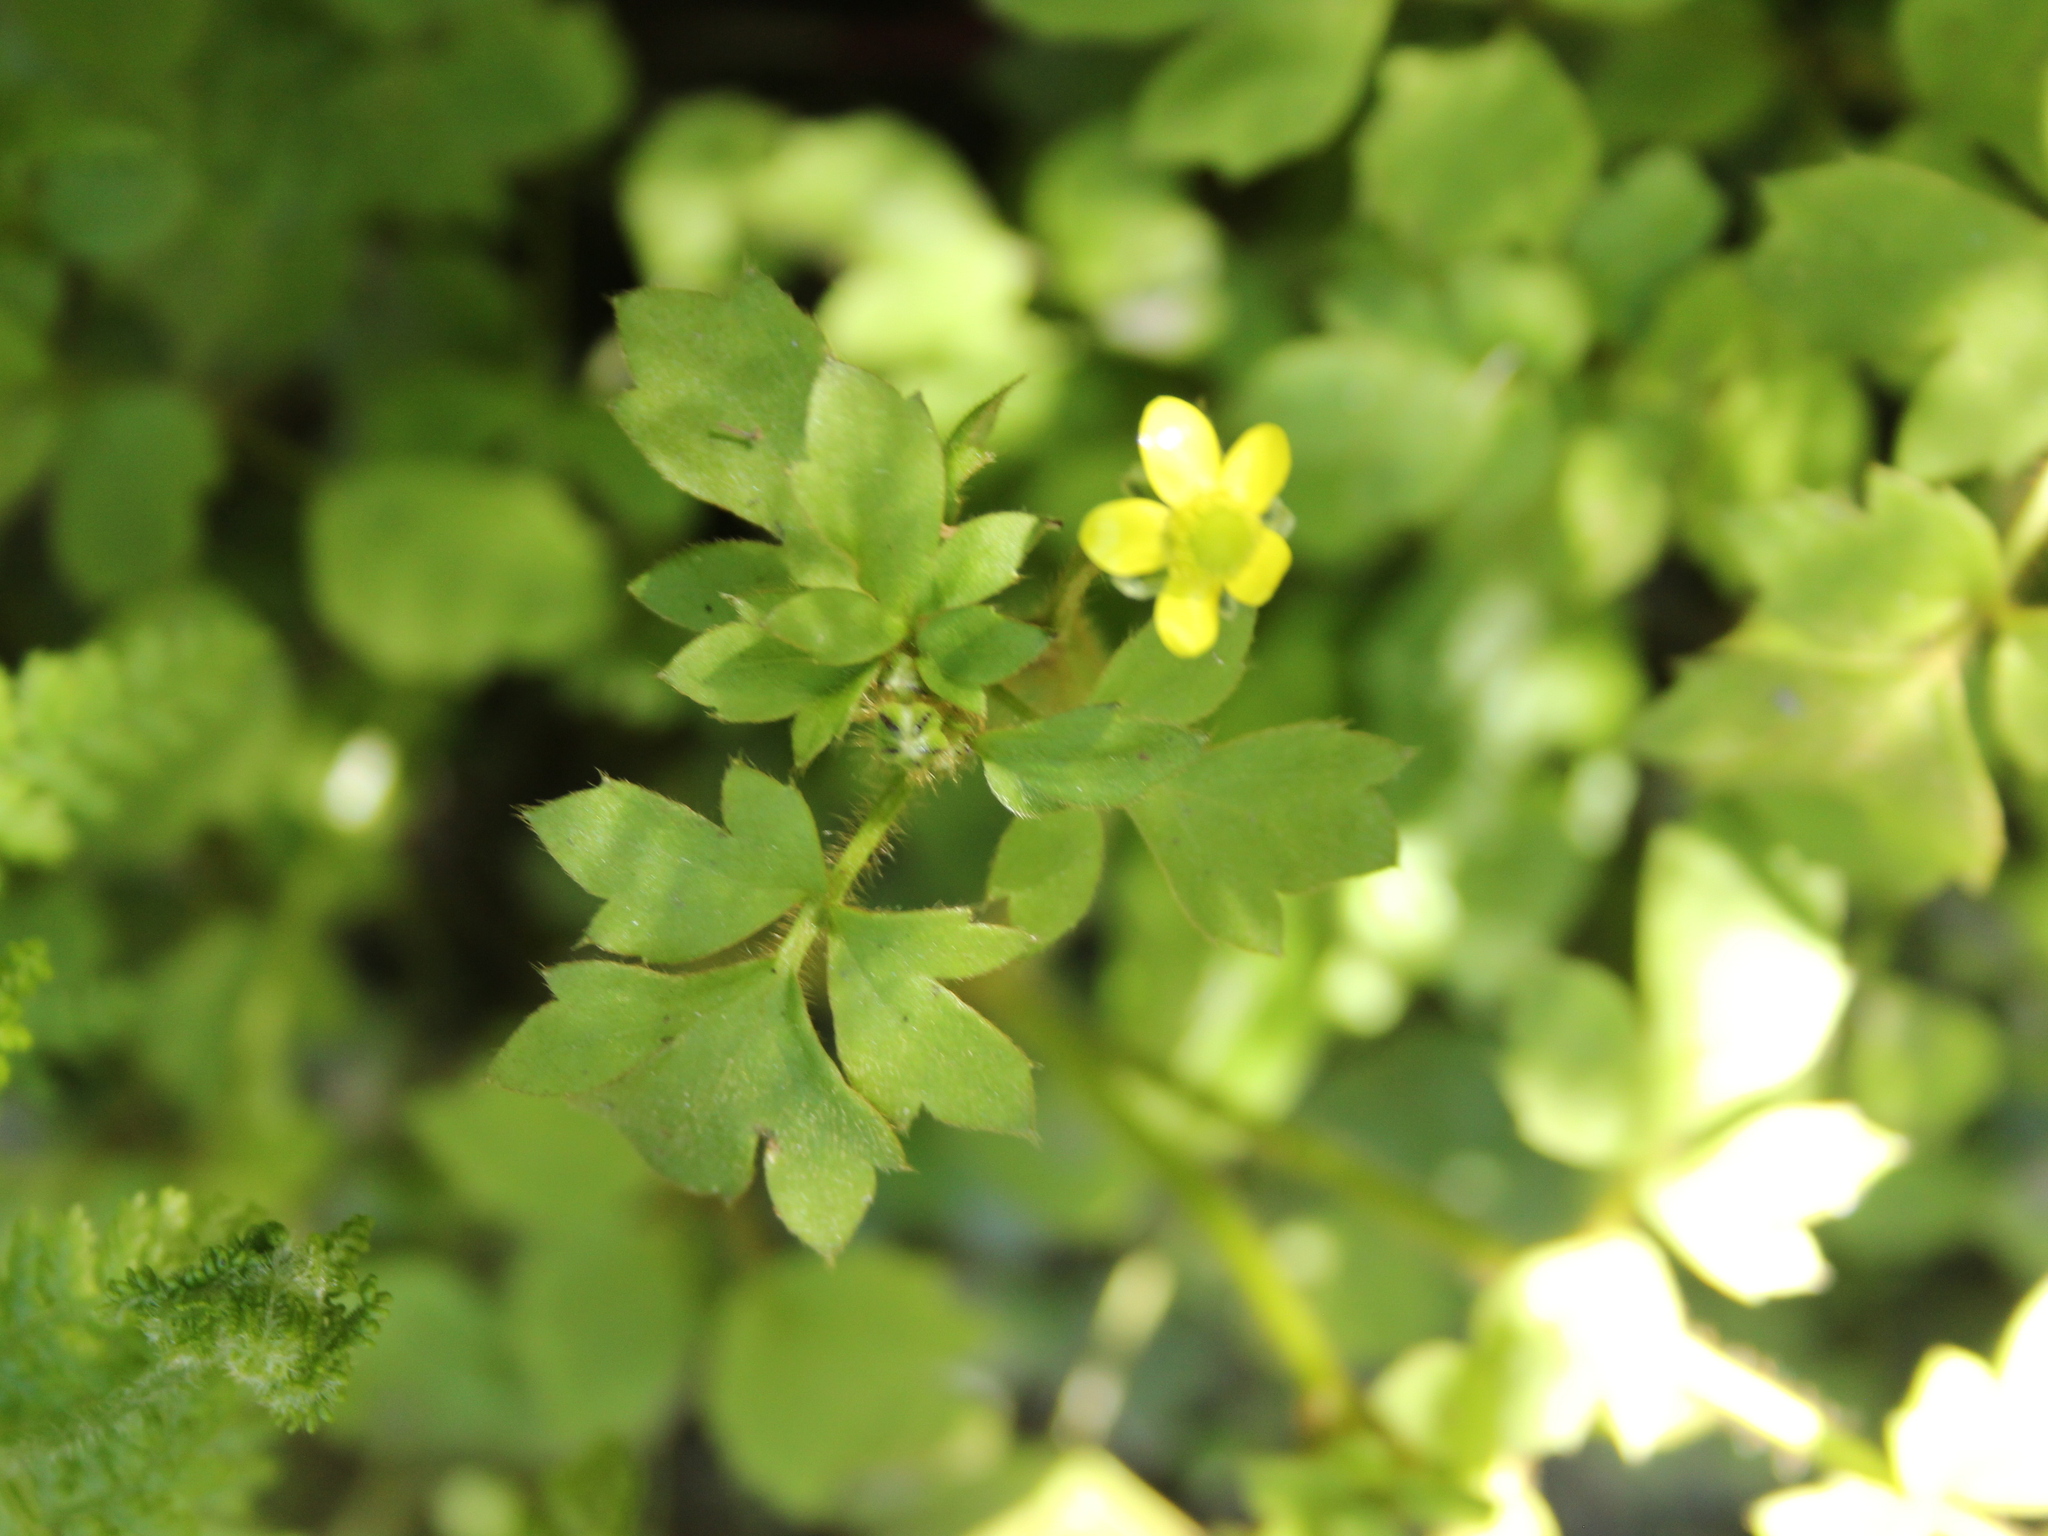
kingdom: Plantae
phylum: Tracheophyta
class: Magnoliopsida
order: Ranunculales
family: Ranunculaceae
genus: Ranunculus
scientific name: Ranunculus reflexus
